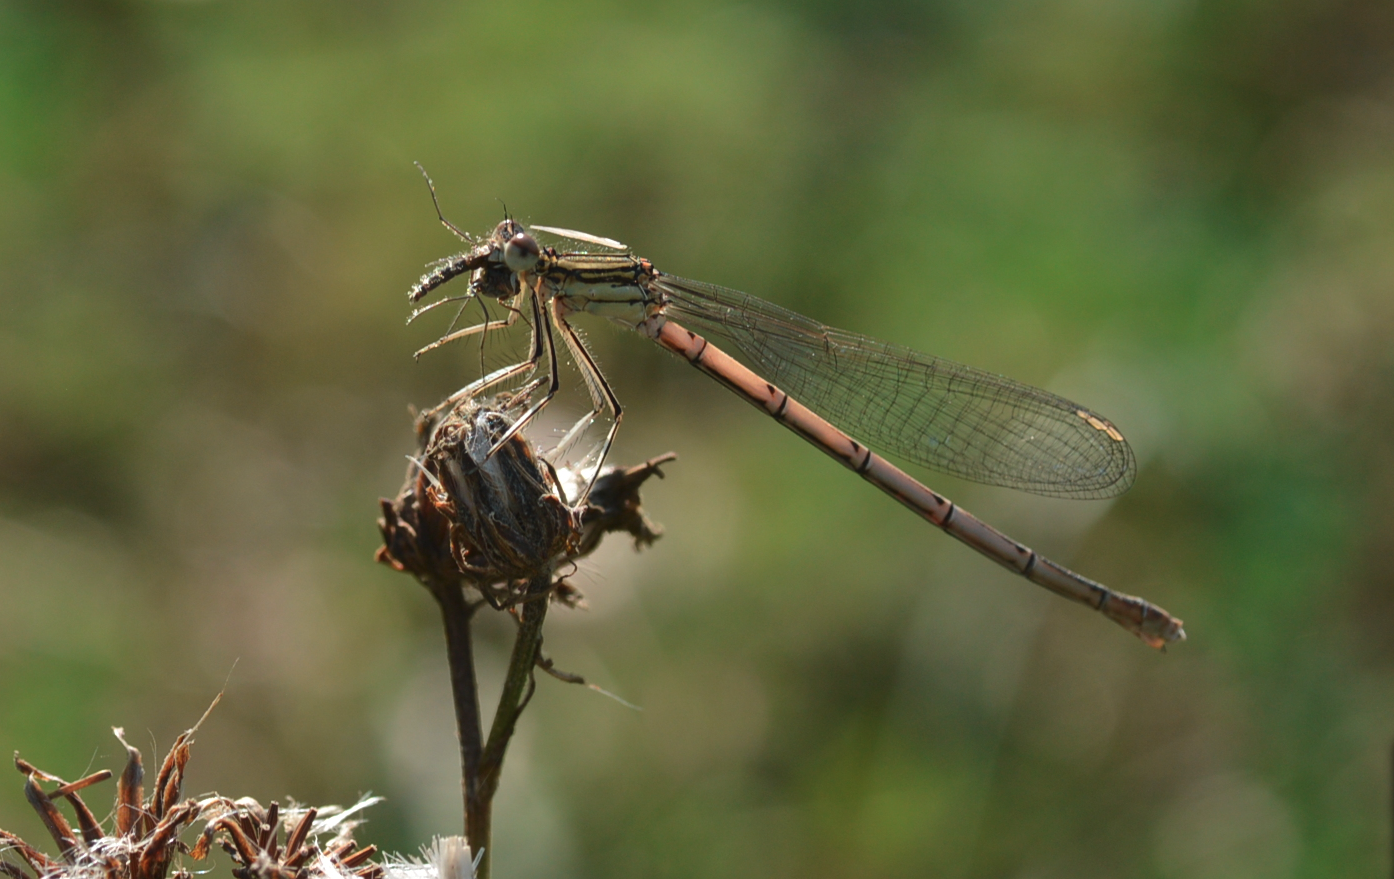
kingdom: Animalia
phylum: Arthropoda
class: Insecta
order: Odonata
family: Platycnemididae
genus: Platycnemis
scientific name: Platycnemis pennipes
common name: White-legged damselfly
